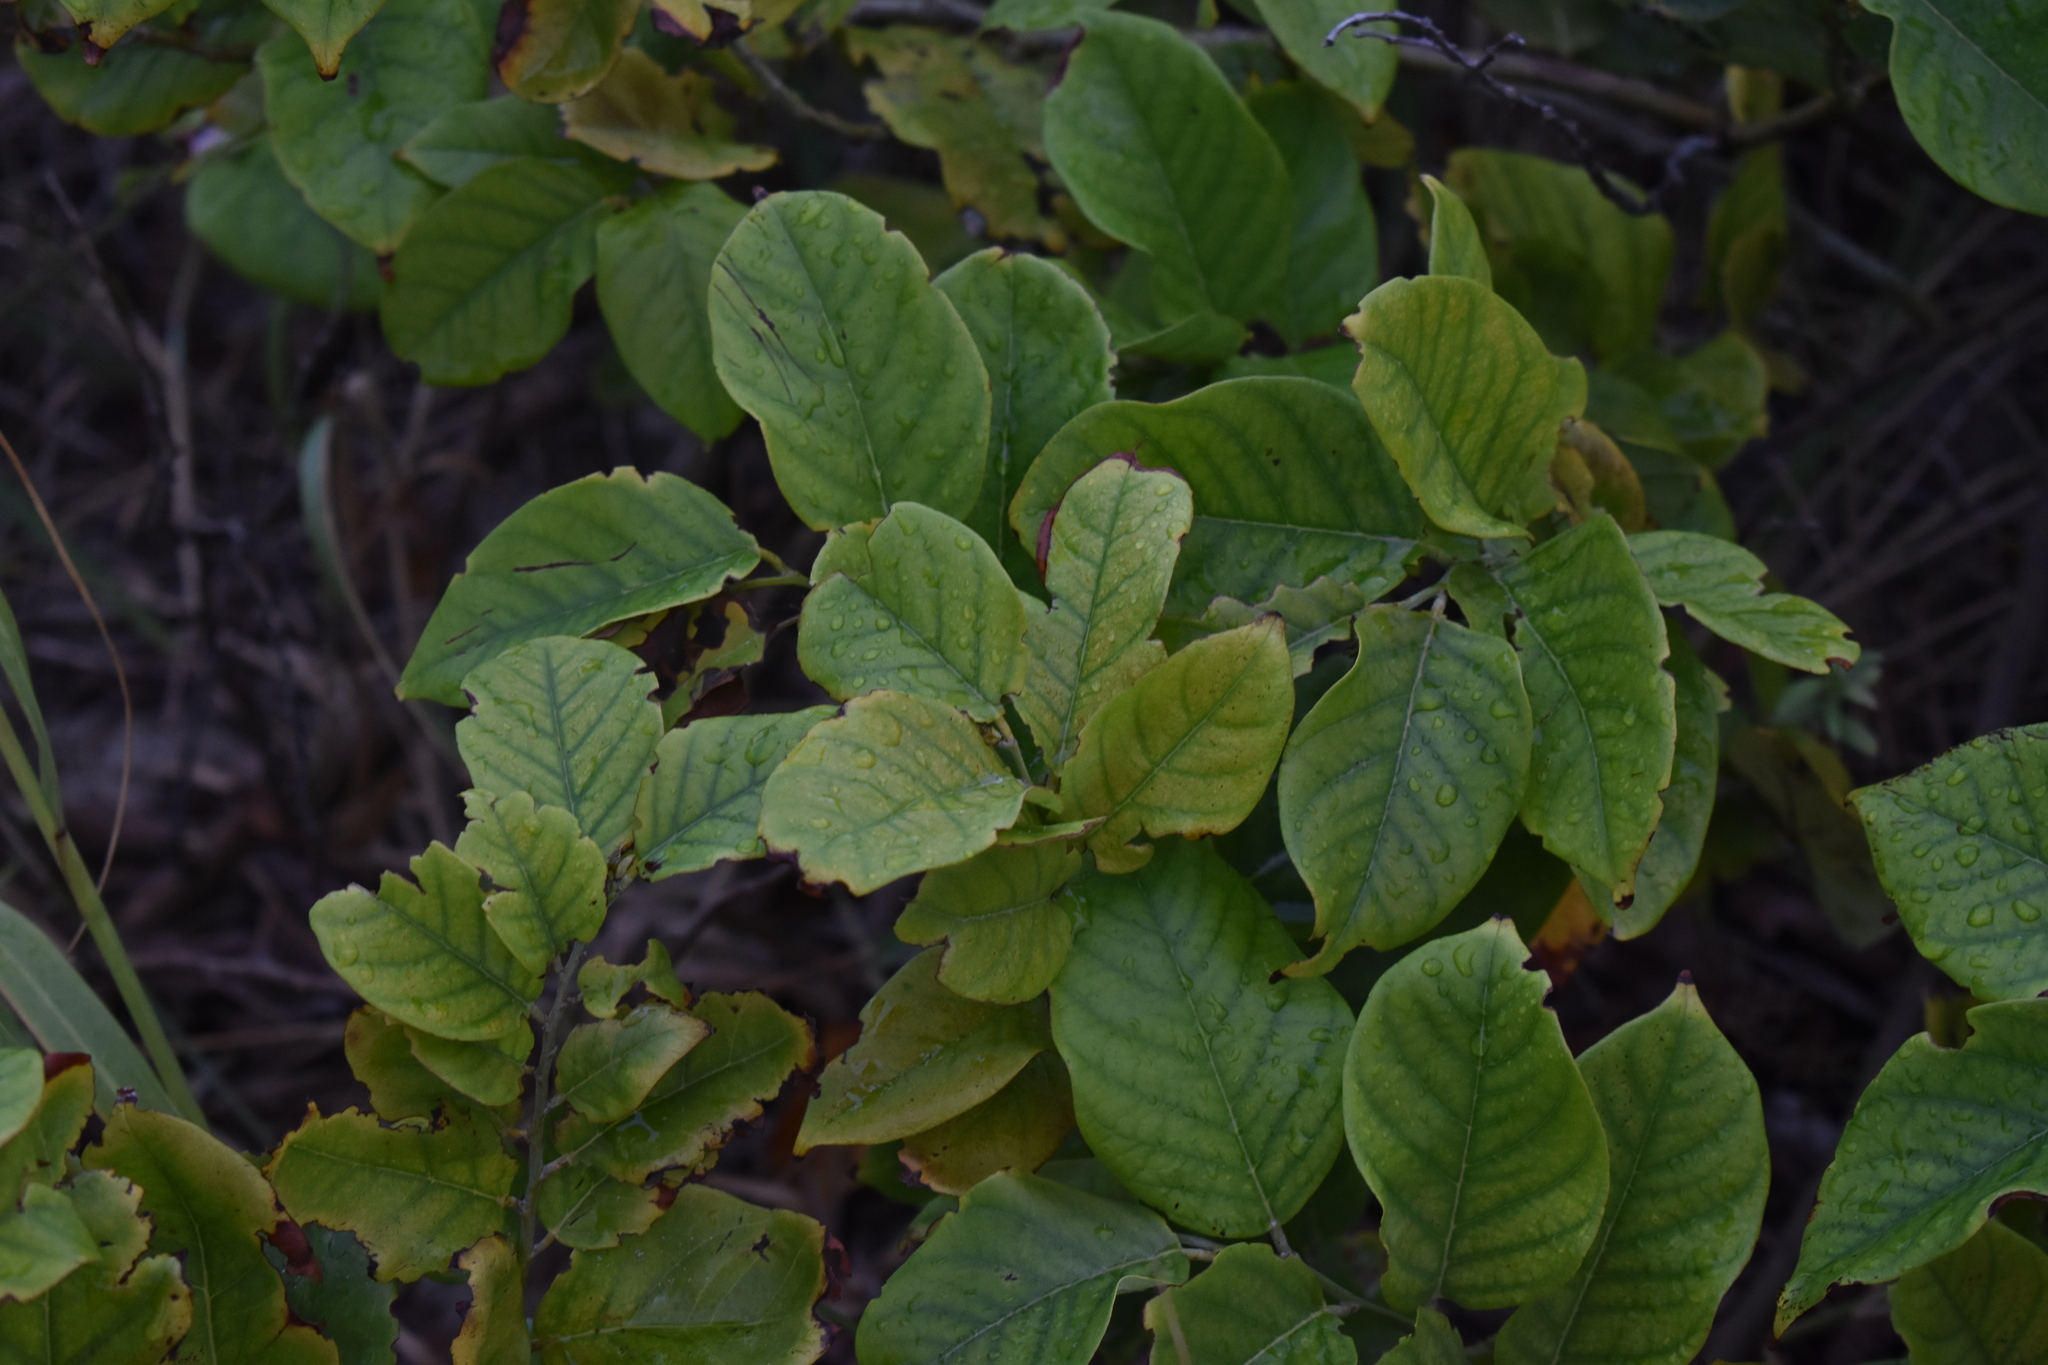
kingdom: Plantae
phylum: Tracheophyta
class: Magnoliopsida
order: Fabales
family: Fabaceae
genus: Dalbergia
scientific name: Dalbergia ecastaphyllum
